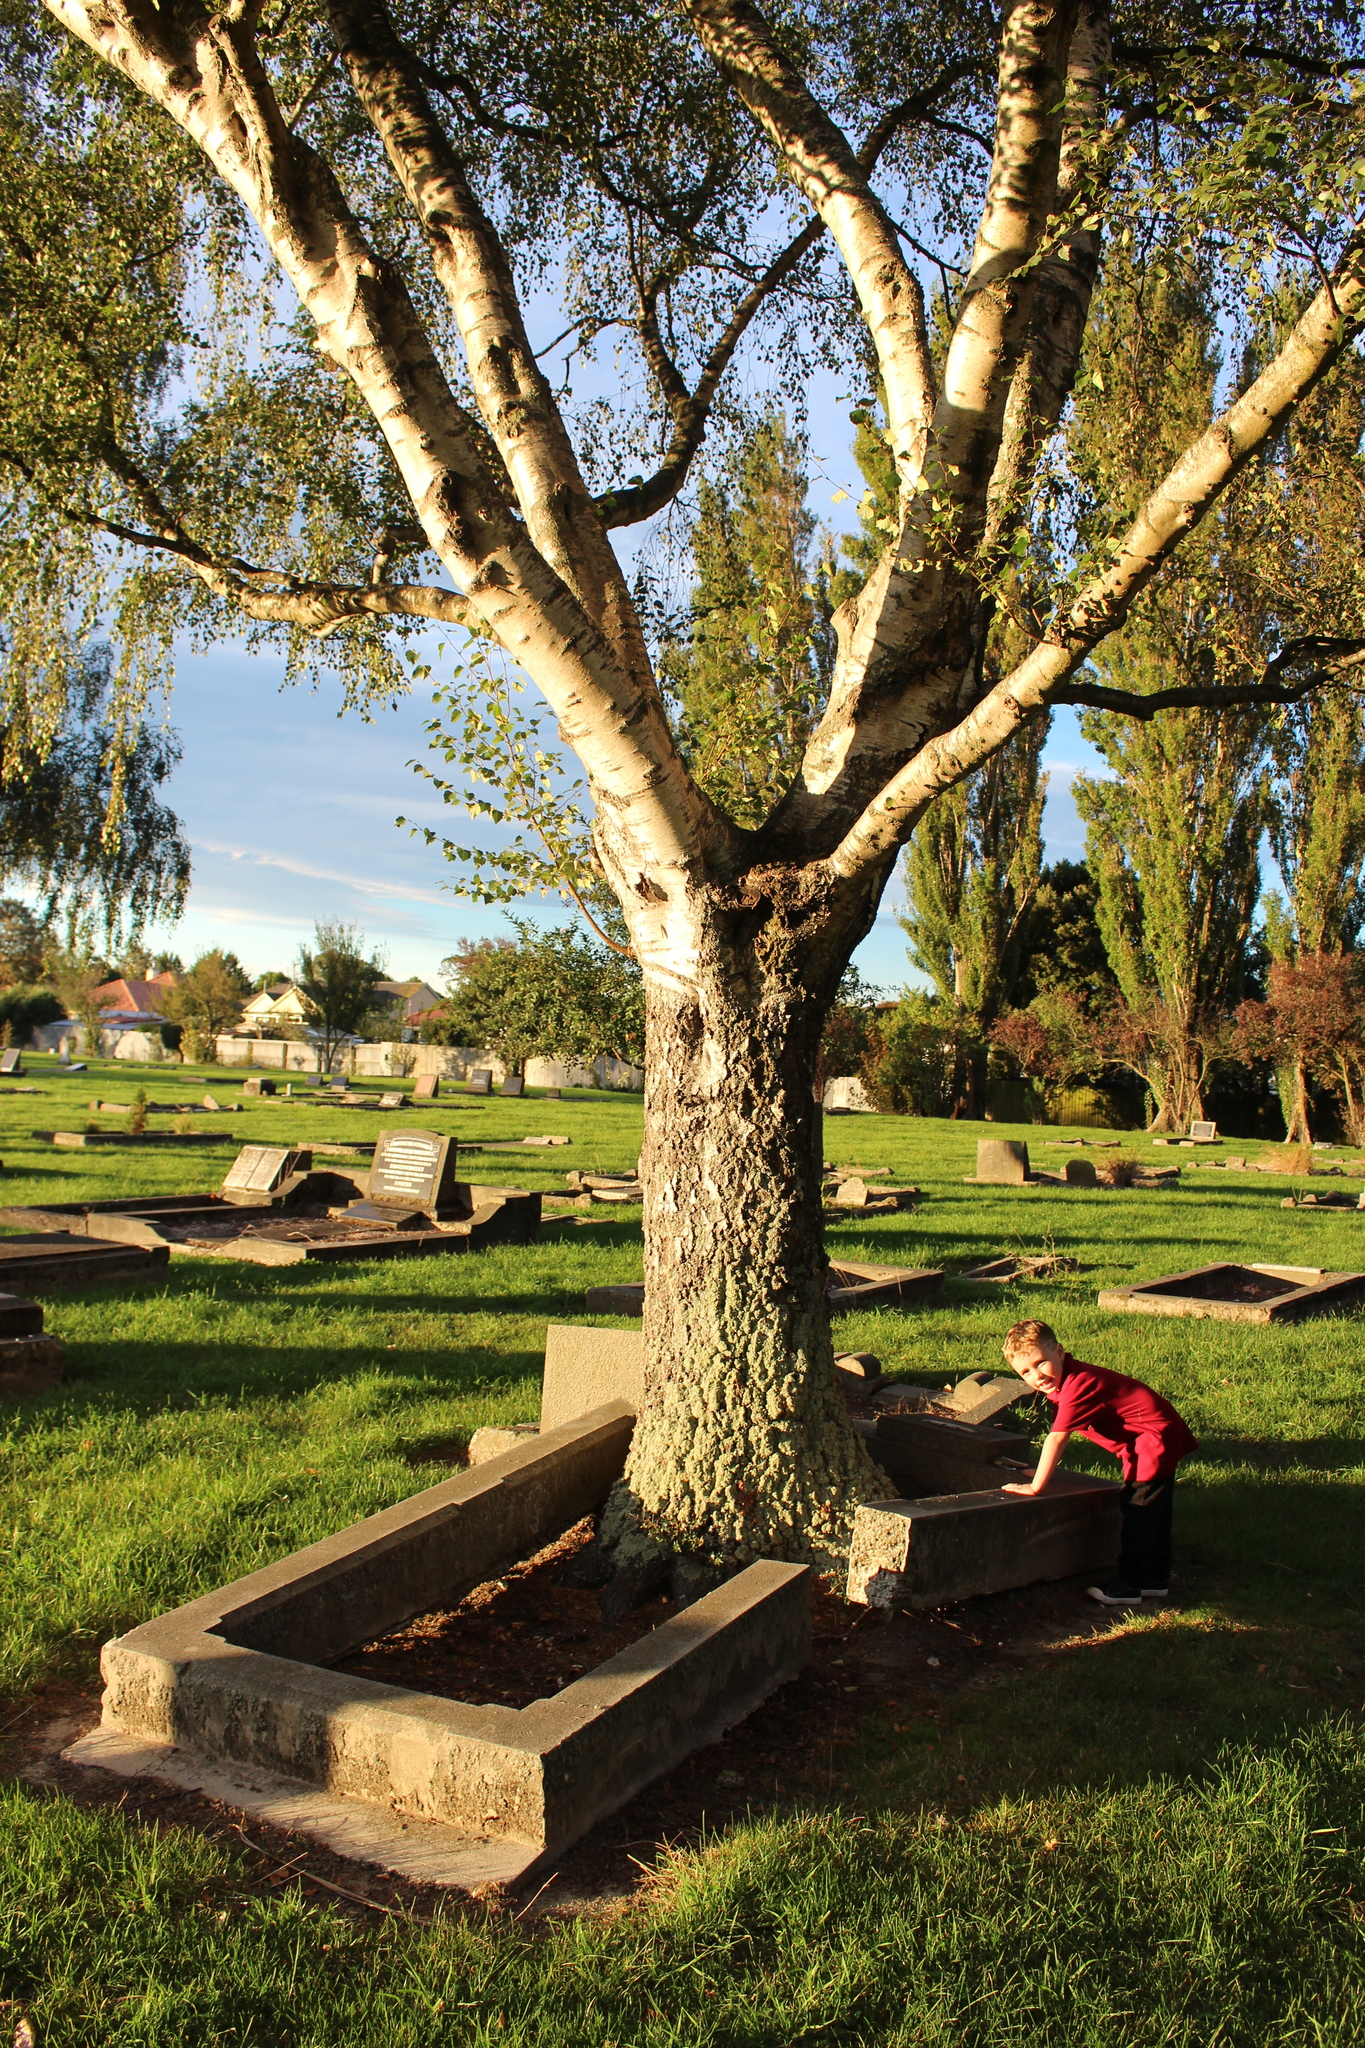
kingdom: Plantae
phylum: Tracheophyta
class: Magnoliopsida
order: Fagales
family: Betulaceae
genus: Betula
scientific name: Betula pendula
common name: Silver birch
